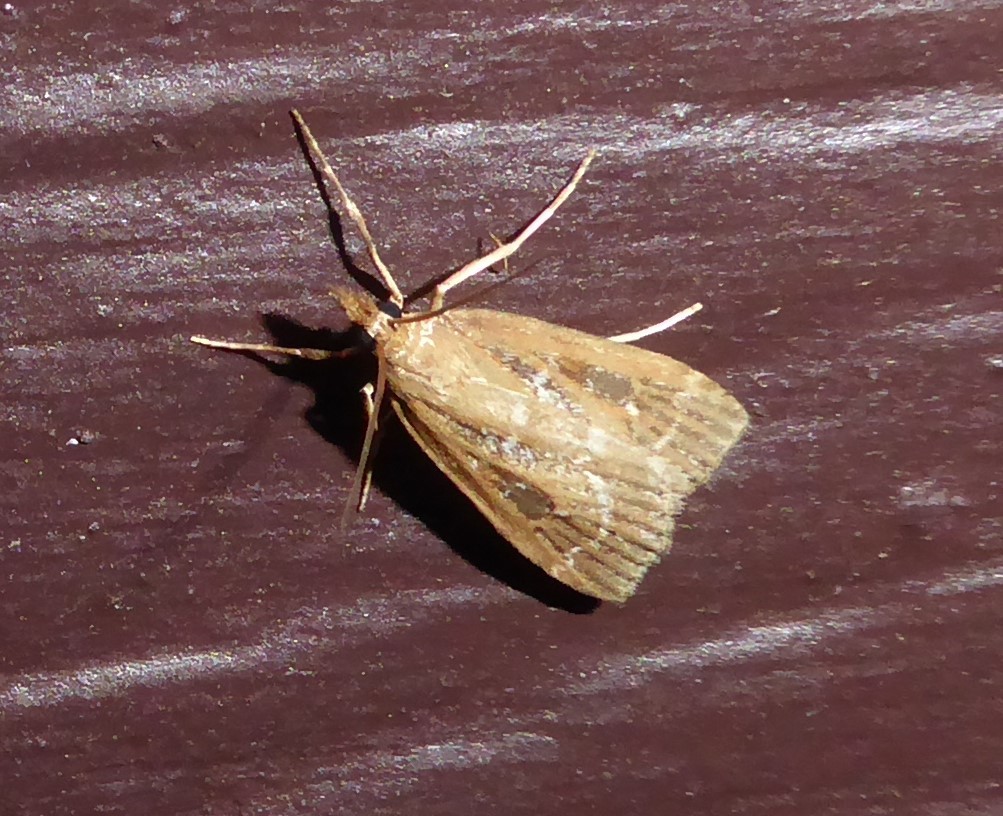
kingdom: Animalia
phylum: Arthropoda
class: Insecta
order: Lepidoptera
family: Crambidae
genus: Eudonia
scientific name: Eudonia octophora
